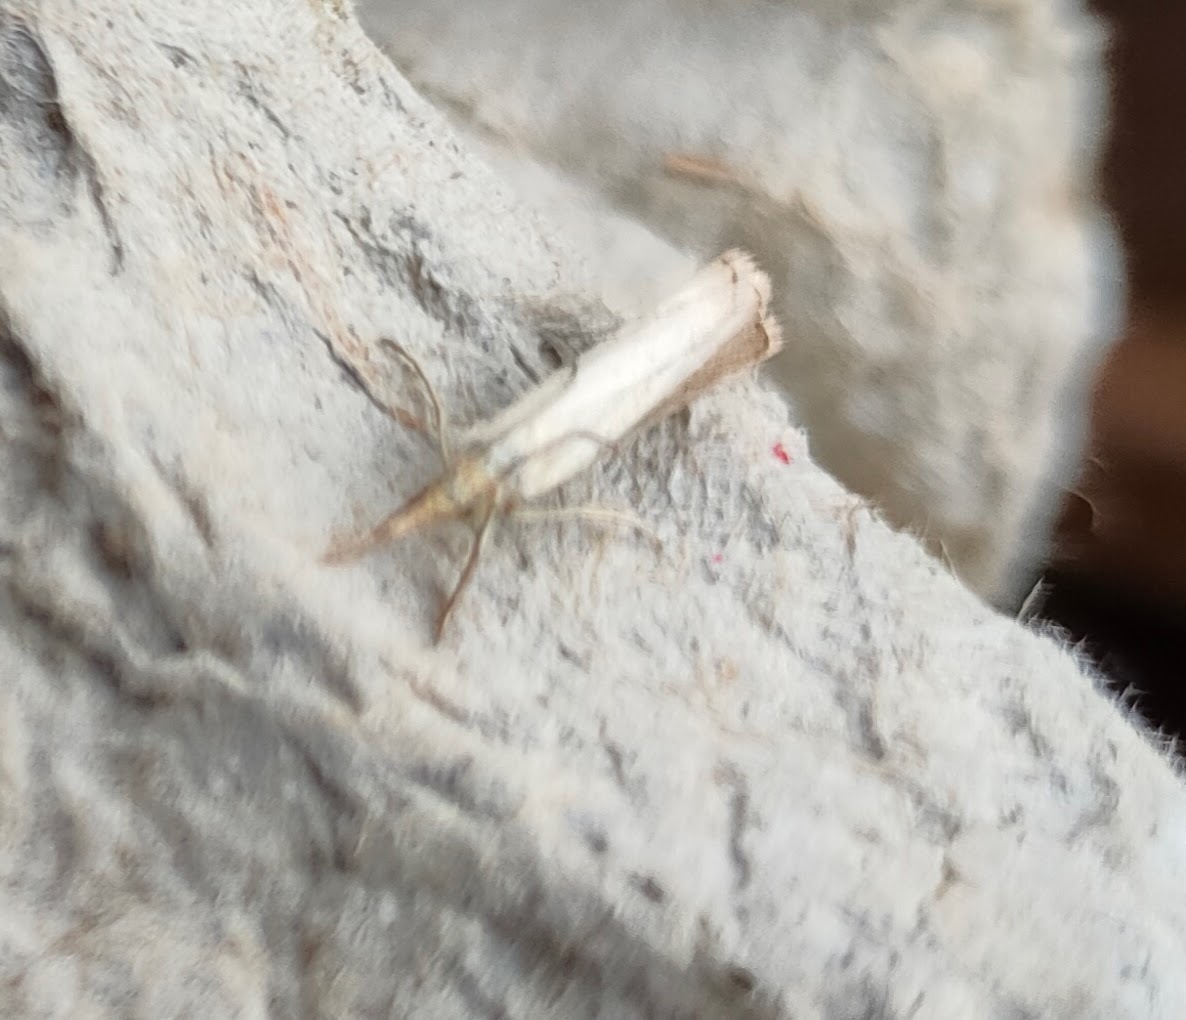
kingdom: Animalia
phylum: Arthropoda
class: Insecta
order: Lepidoptera
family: Crambidae
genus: Agriphila
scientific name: Agriphila straminella
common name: Straw grass-veneer
